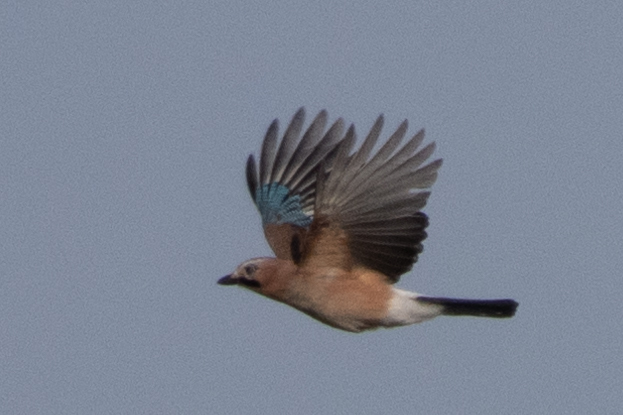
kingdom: Animalia
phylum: Chordata
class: Aves
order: Passeriformes
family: Corvidae
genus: Garrulus
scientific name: Garrulus glandarius
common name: Eurasian jay
